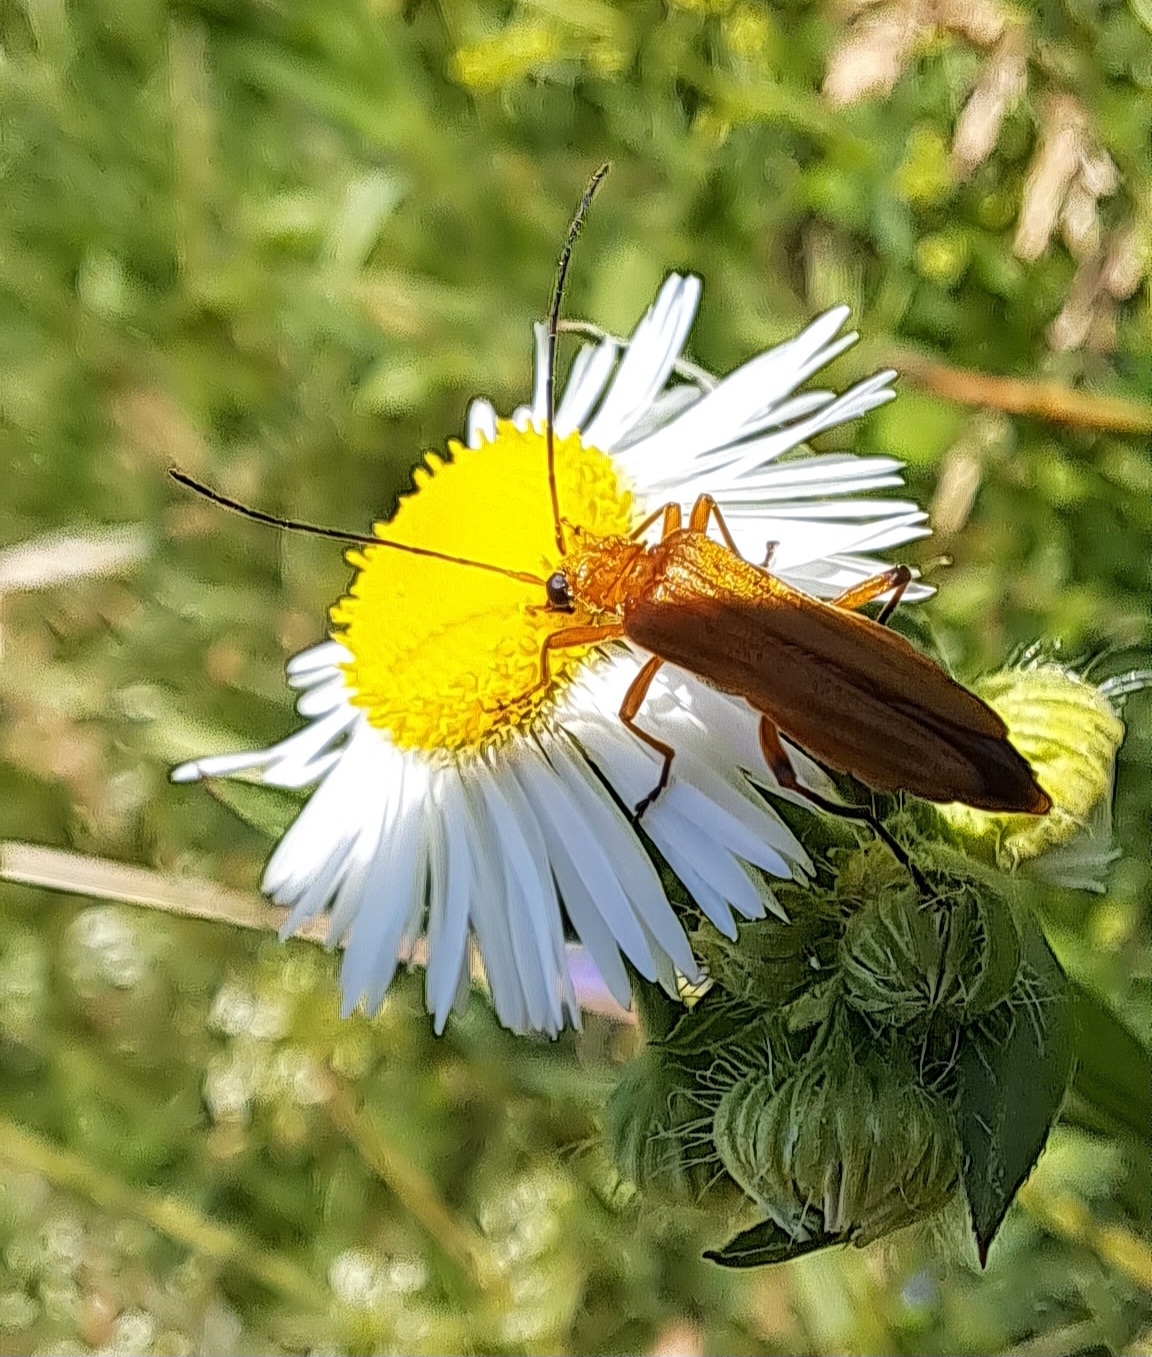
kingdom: Animalia
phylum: Arthropoda
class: Insecta
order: Coleoptera
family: Oedemeridae
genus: Oedemera
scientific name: Oedemera podagrariae
